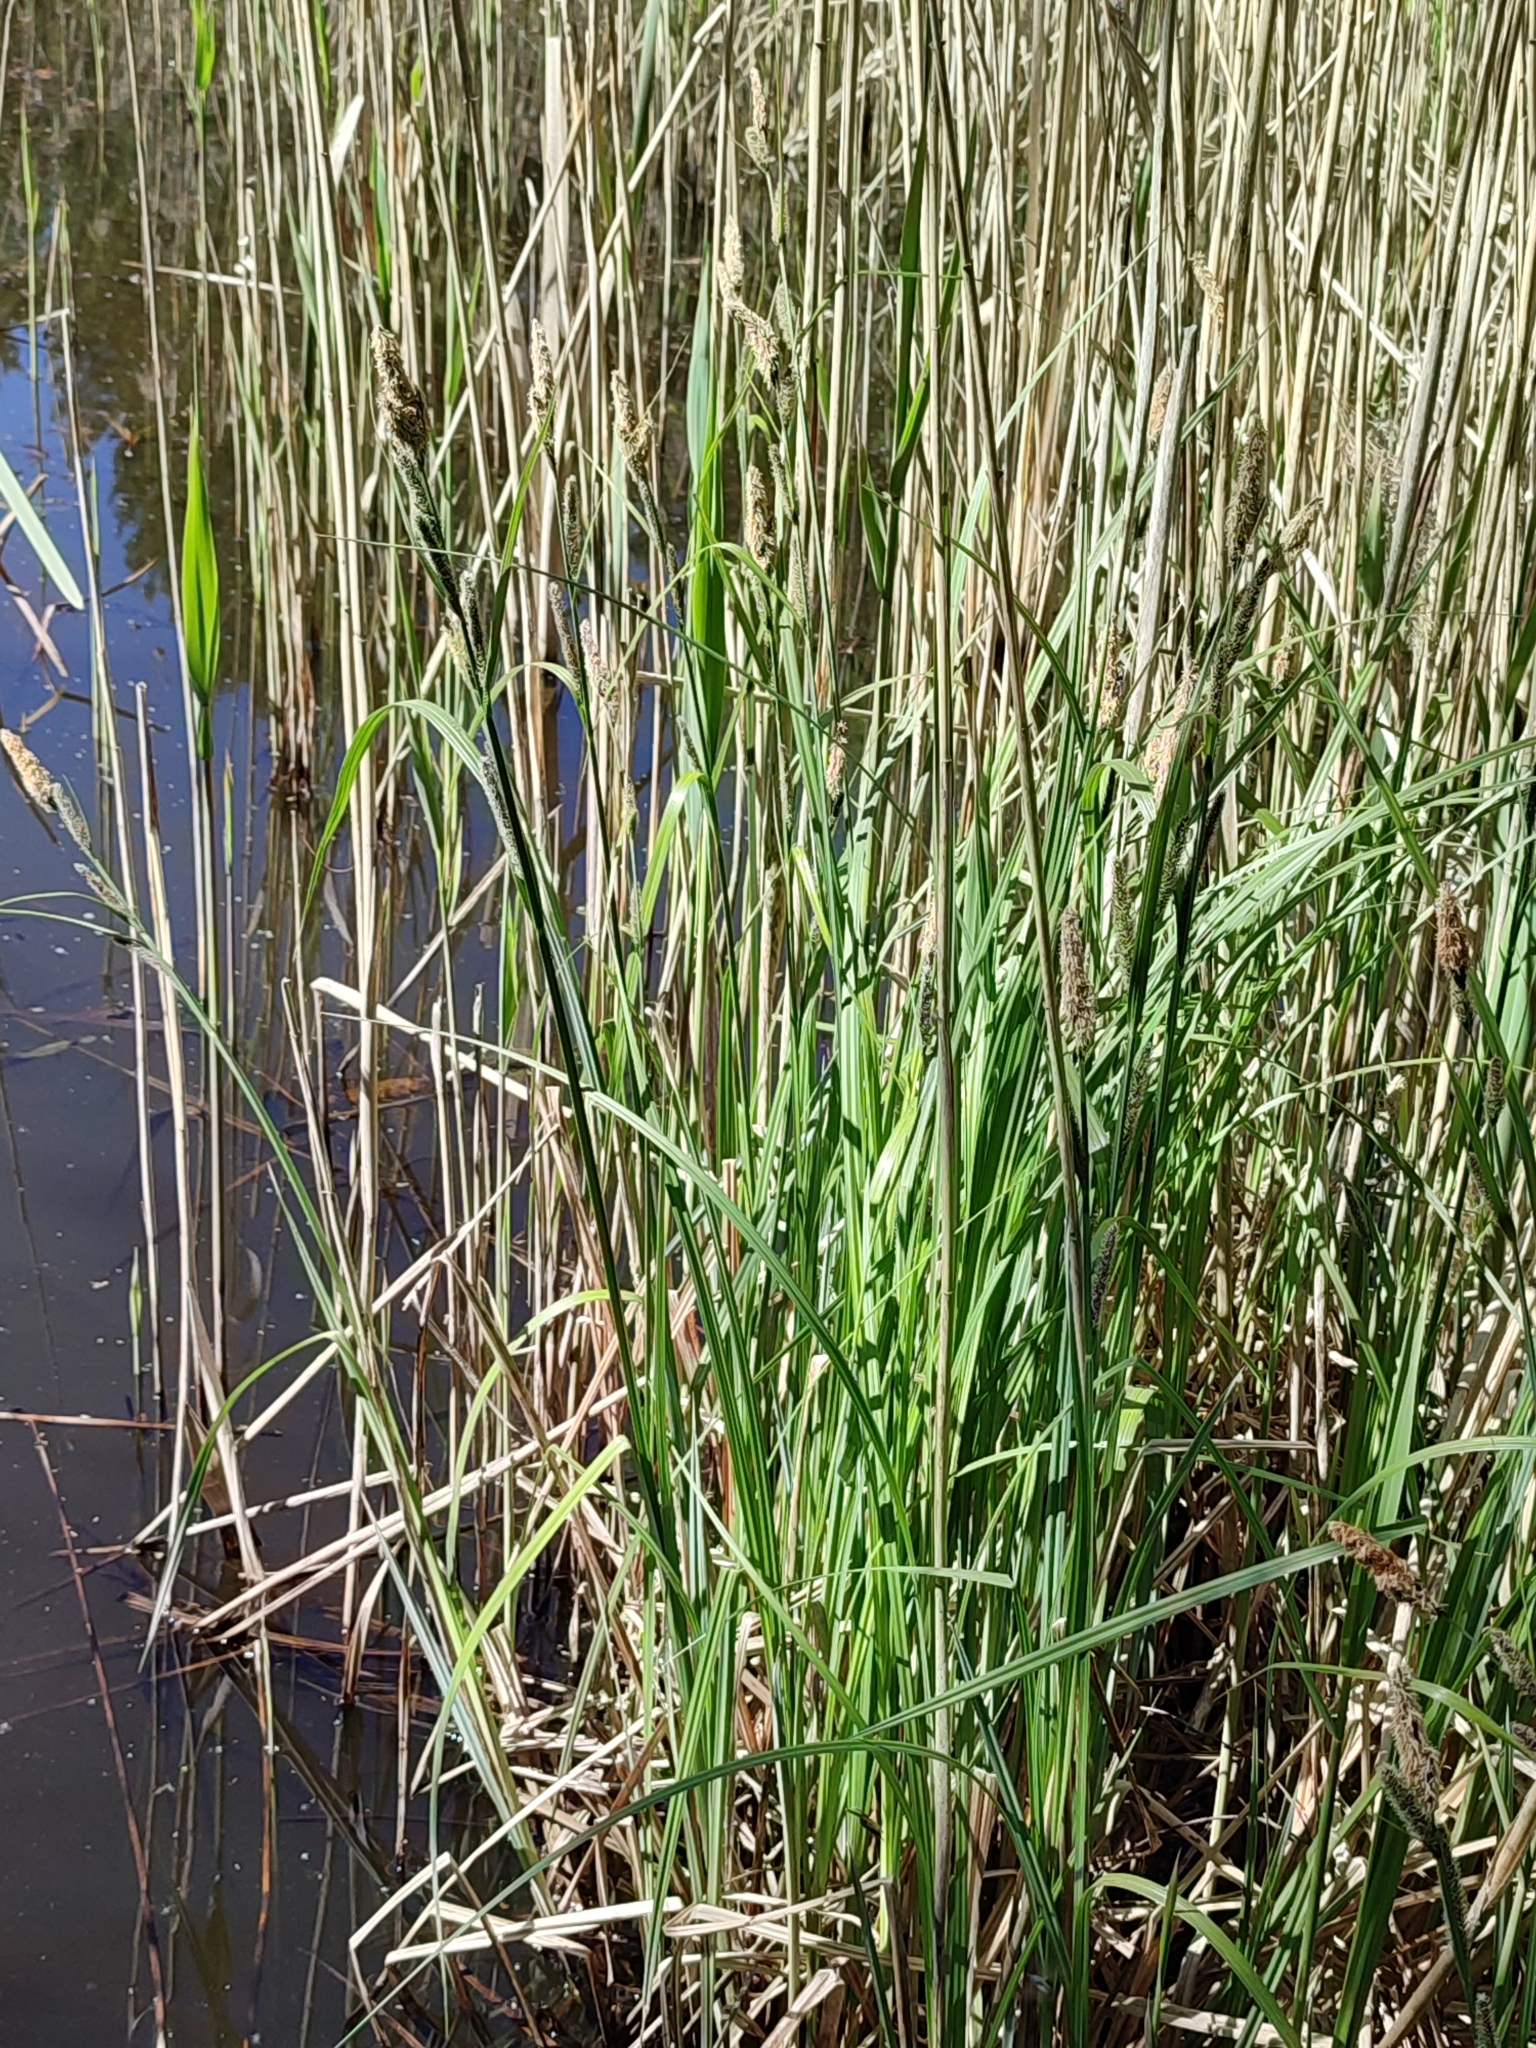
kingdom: Plantae
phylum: Tracheophyta
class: Liliopsida
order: Poales
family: Cyperaceae
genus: Carex
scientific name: Carex acutiformis
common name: Lesser pond-sedge
